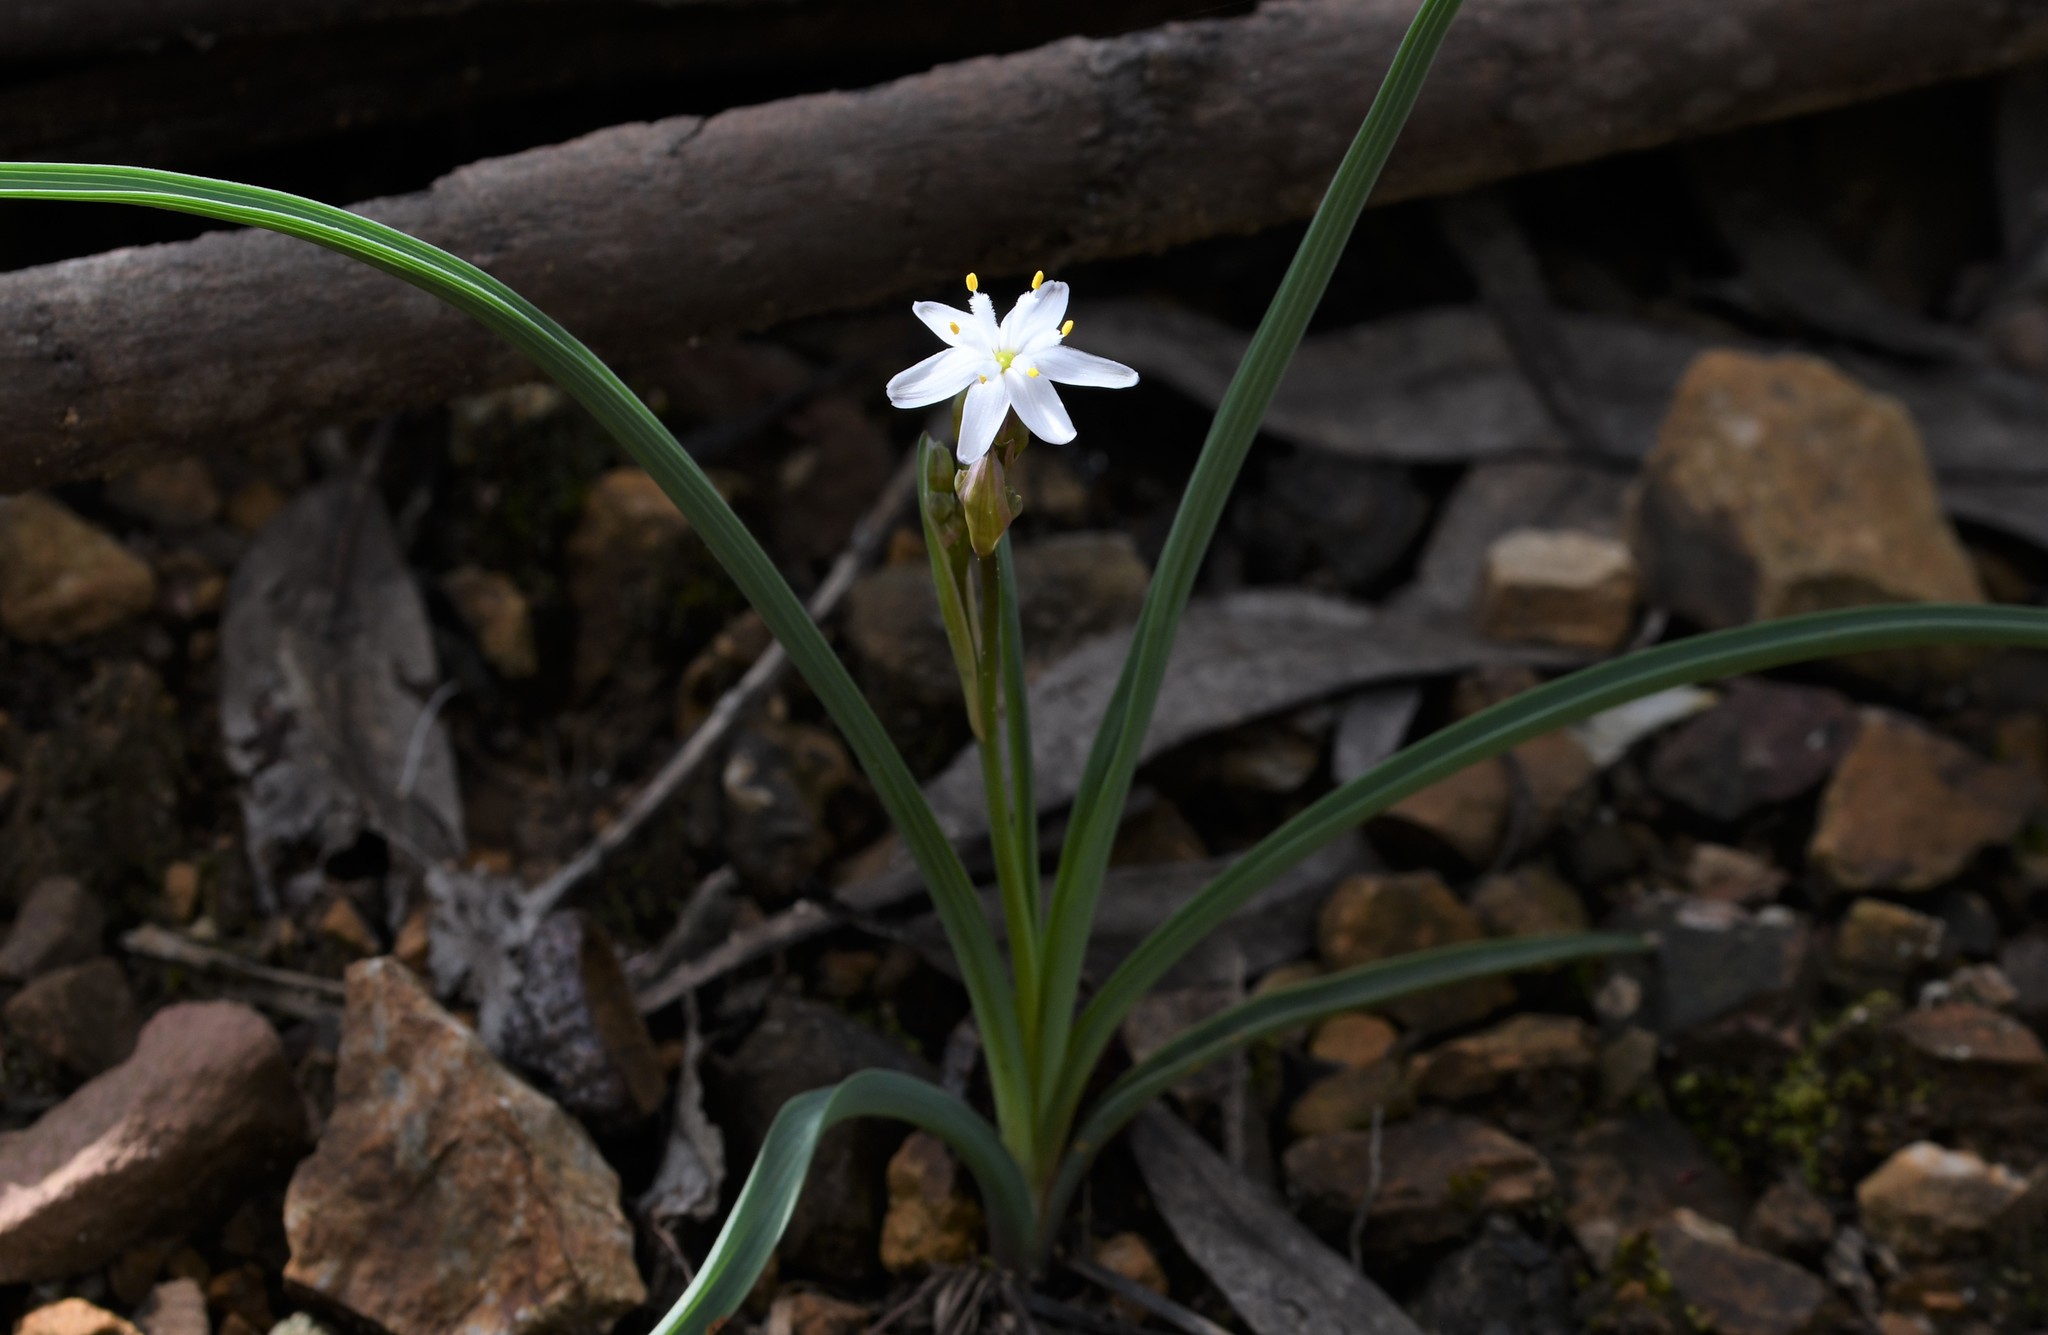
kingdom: Plantae
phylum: Tracheophyta
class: Liliopsida
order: Asparagales
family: Asphodelaceae
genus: Simethis
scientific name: Simethis mattiazzii
